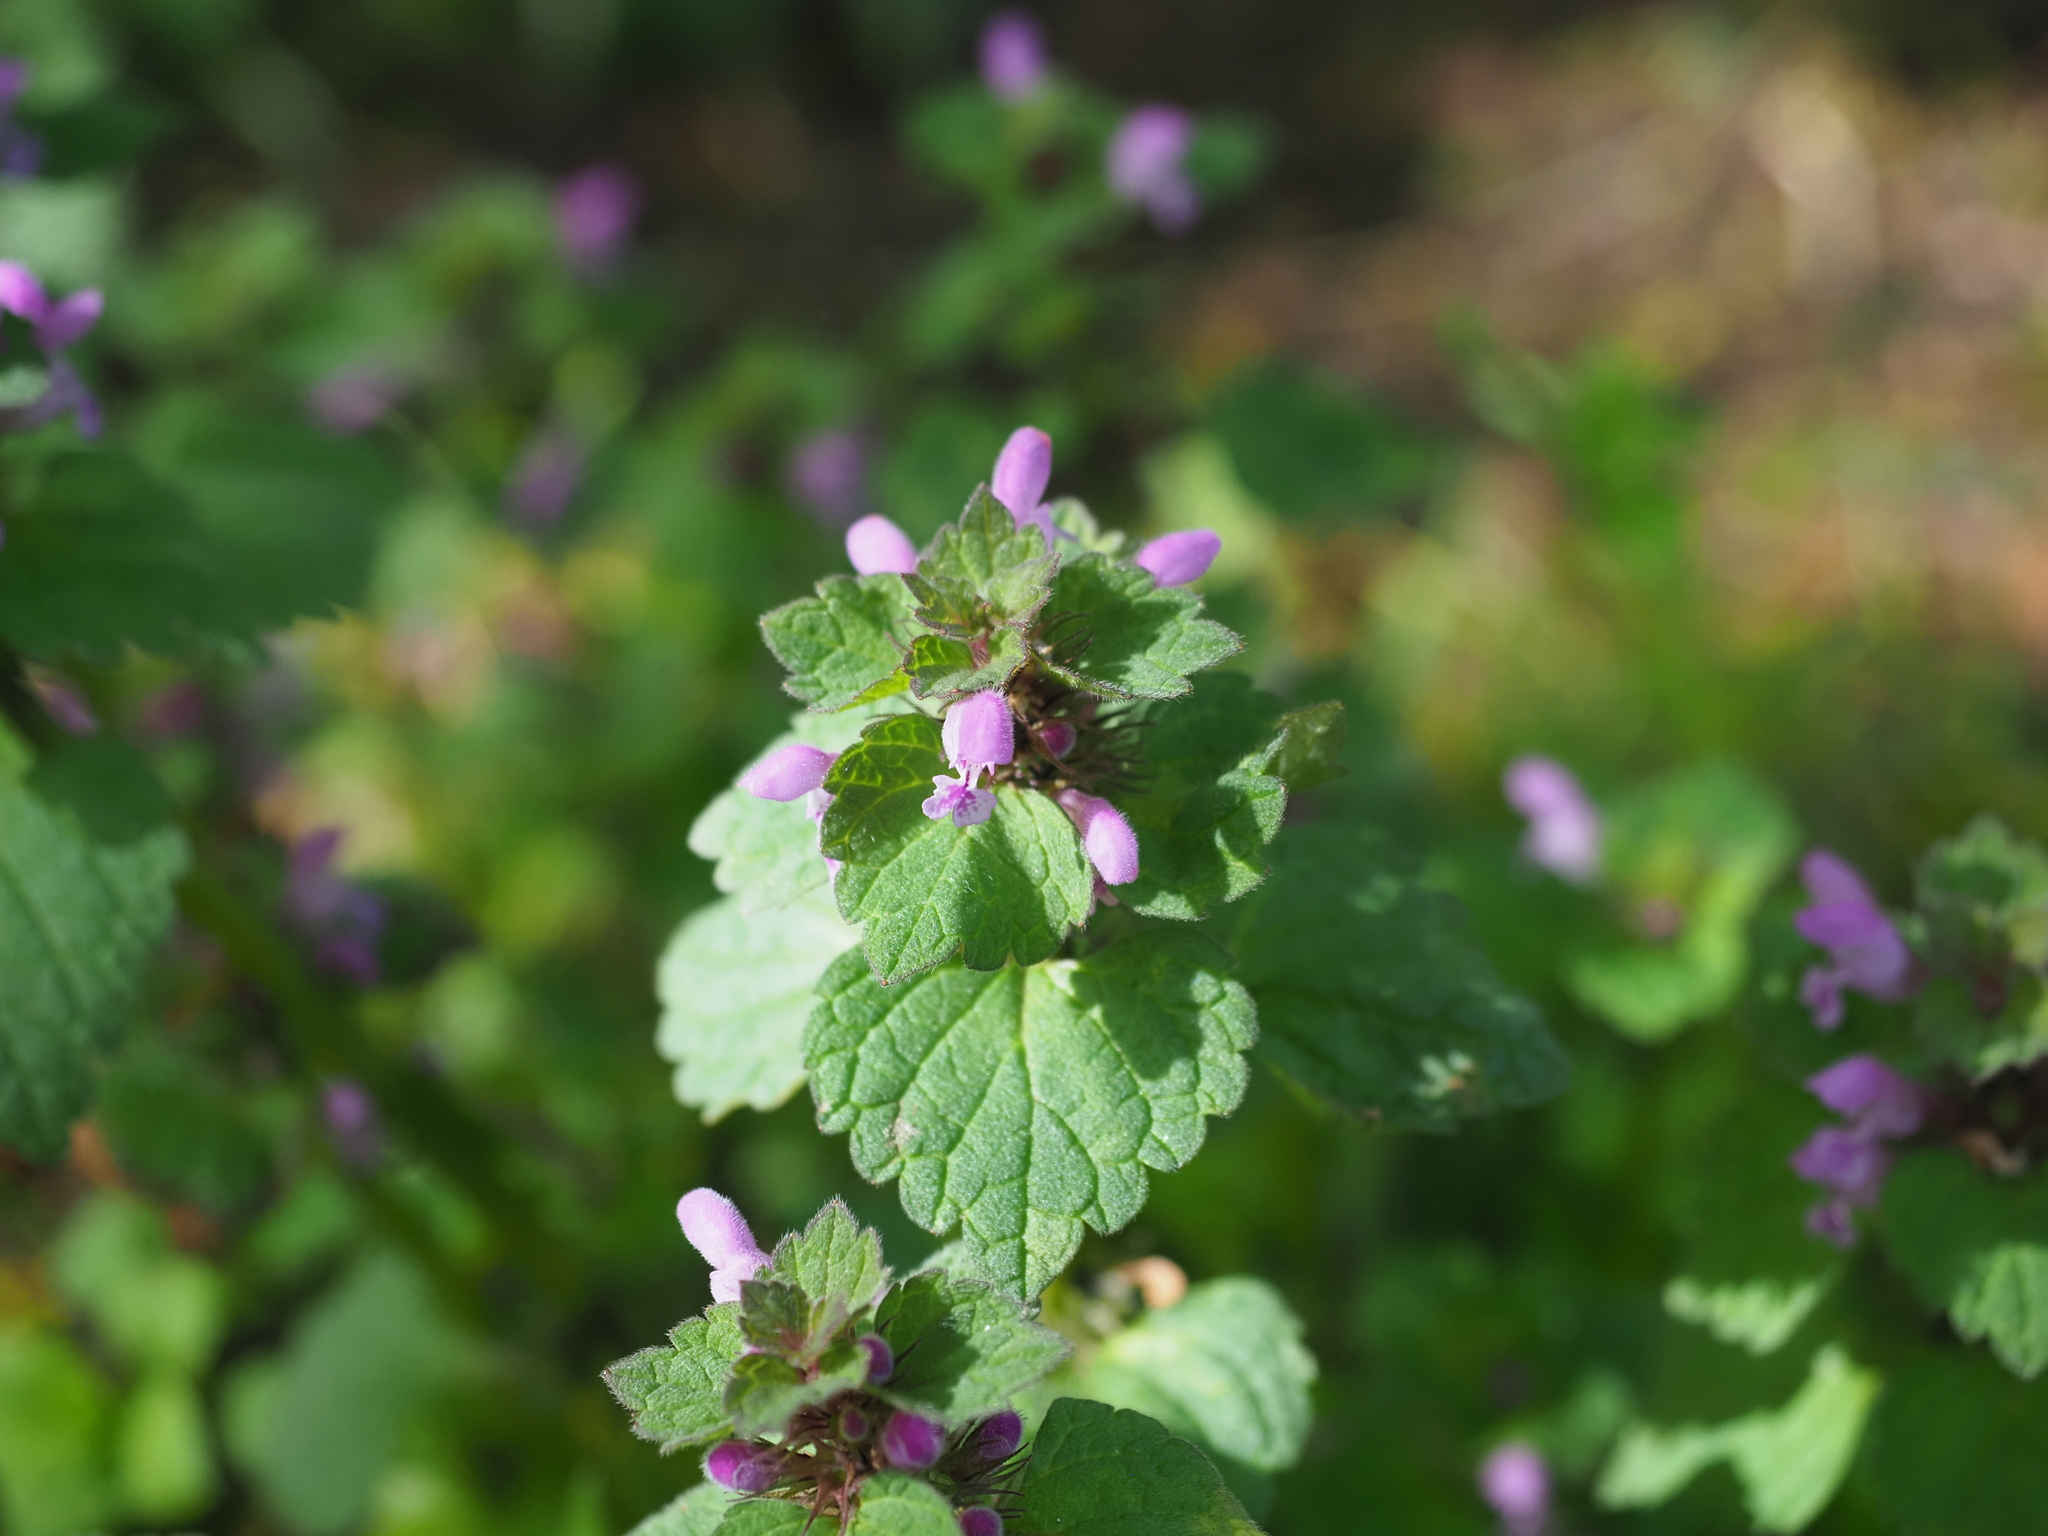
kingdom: Plantae
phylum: Tracheophyta
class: Magnoliopsida
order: Lamiales
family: Lamiaceae
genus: Lamium
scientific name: Lamium purpureum
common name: Red dead-nettle
